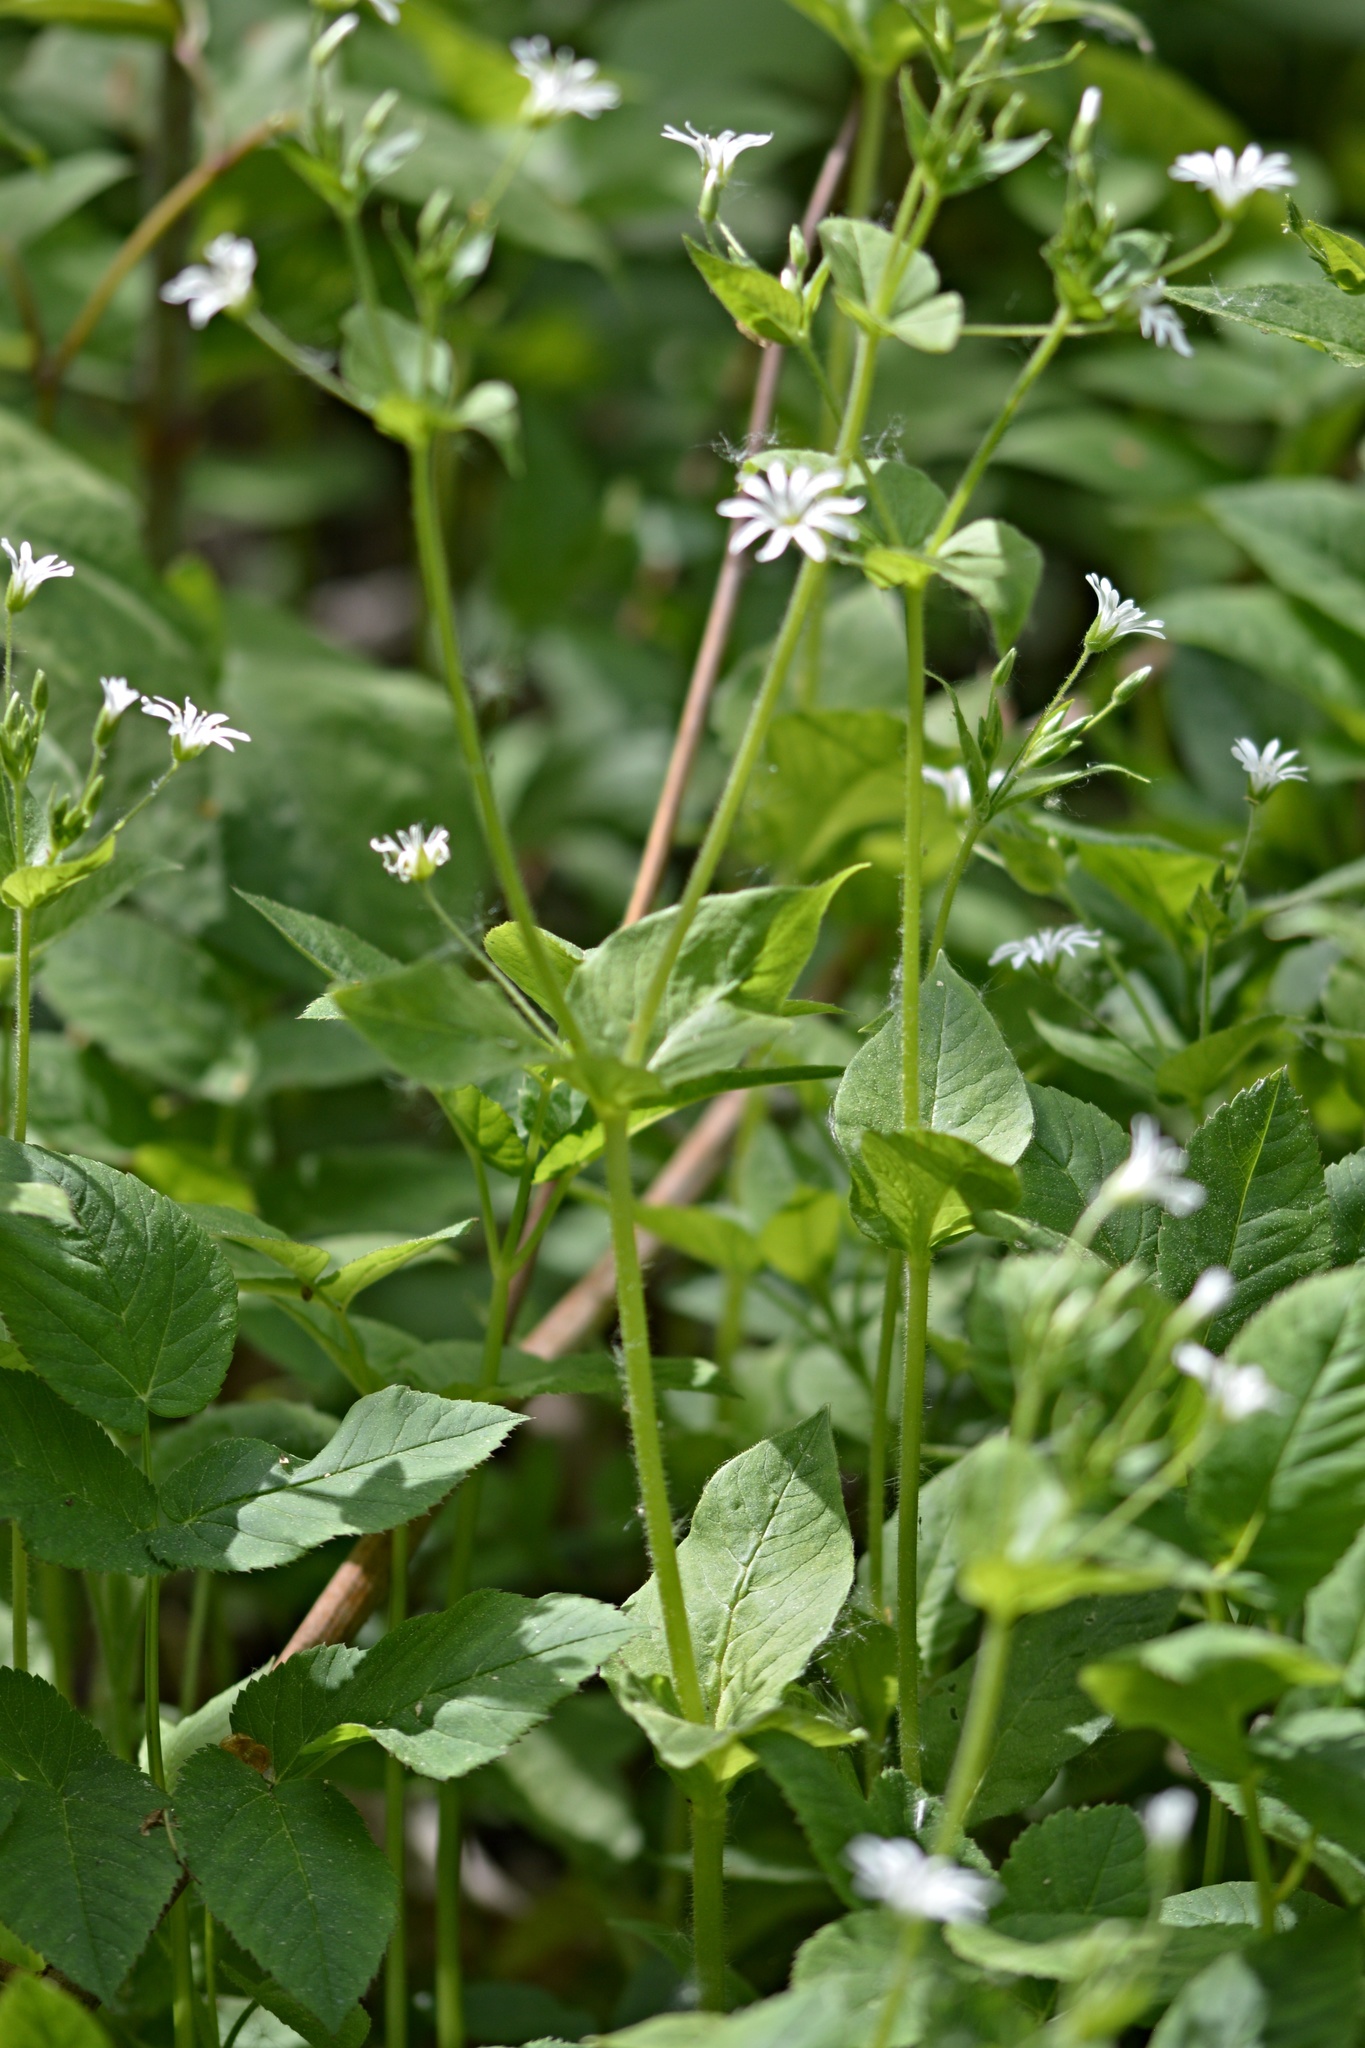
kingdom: Plantae
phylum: Tracheophyta
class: Magnoliopsida
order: Caryophyllales
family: Caryophyllaceae
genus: Stellaria
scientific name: Stellaria nemorum
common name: Wood stitchwort
